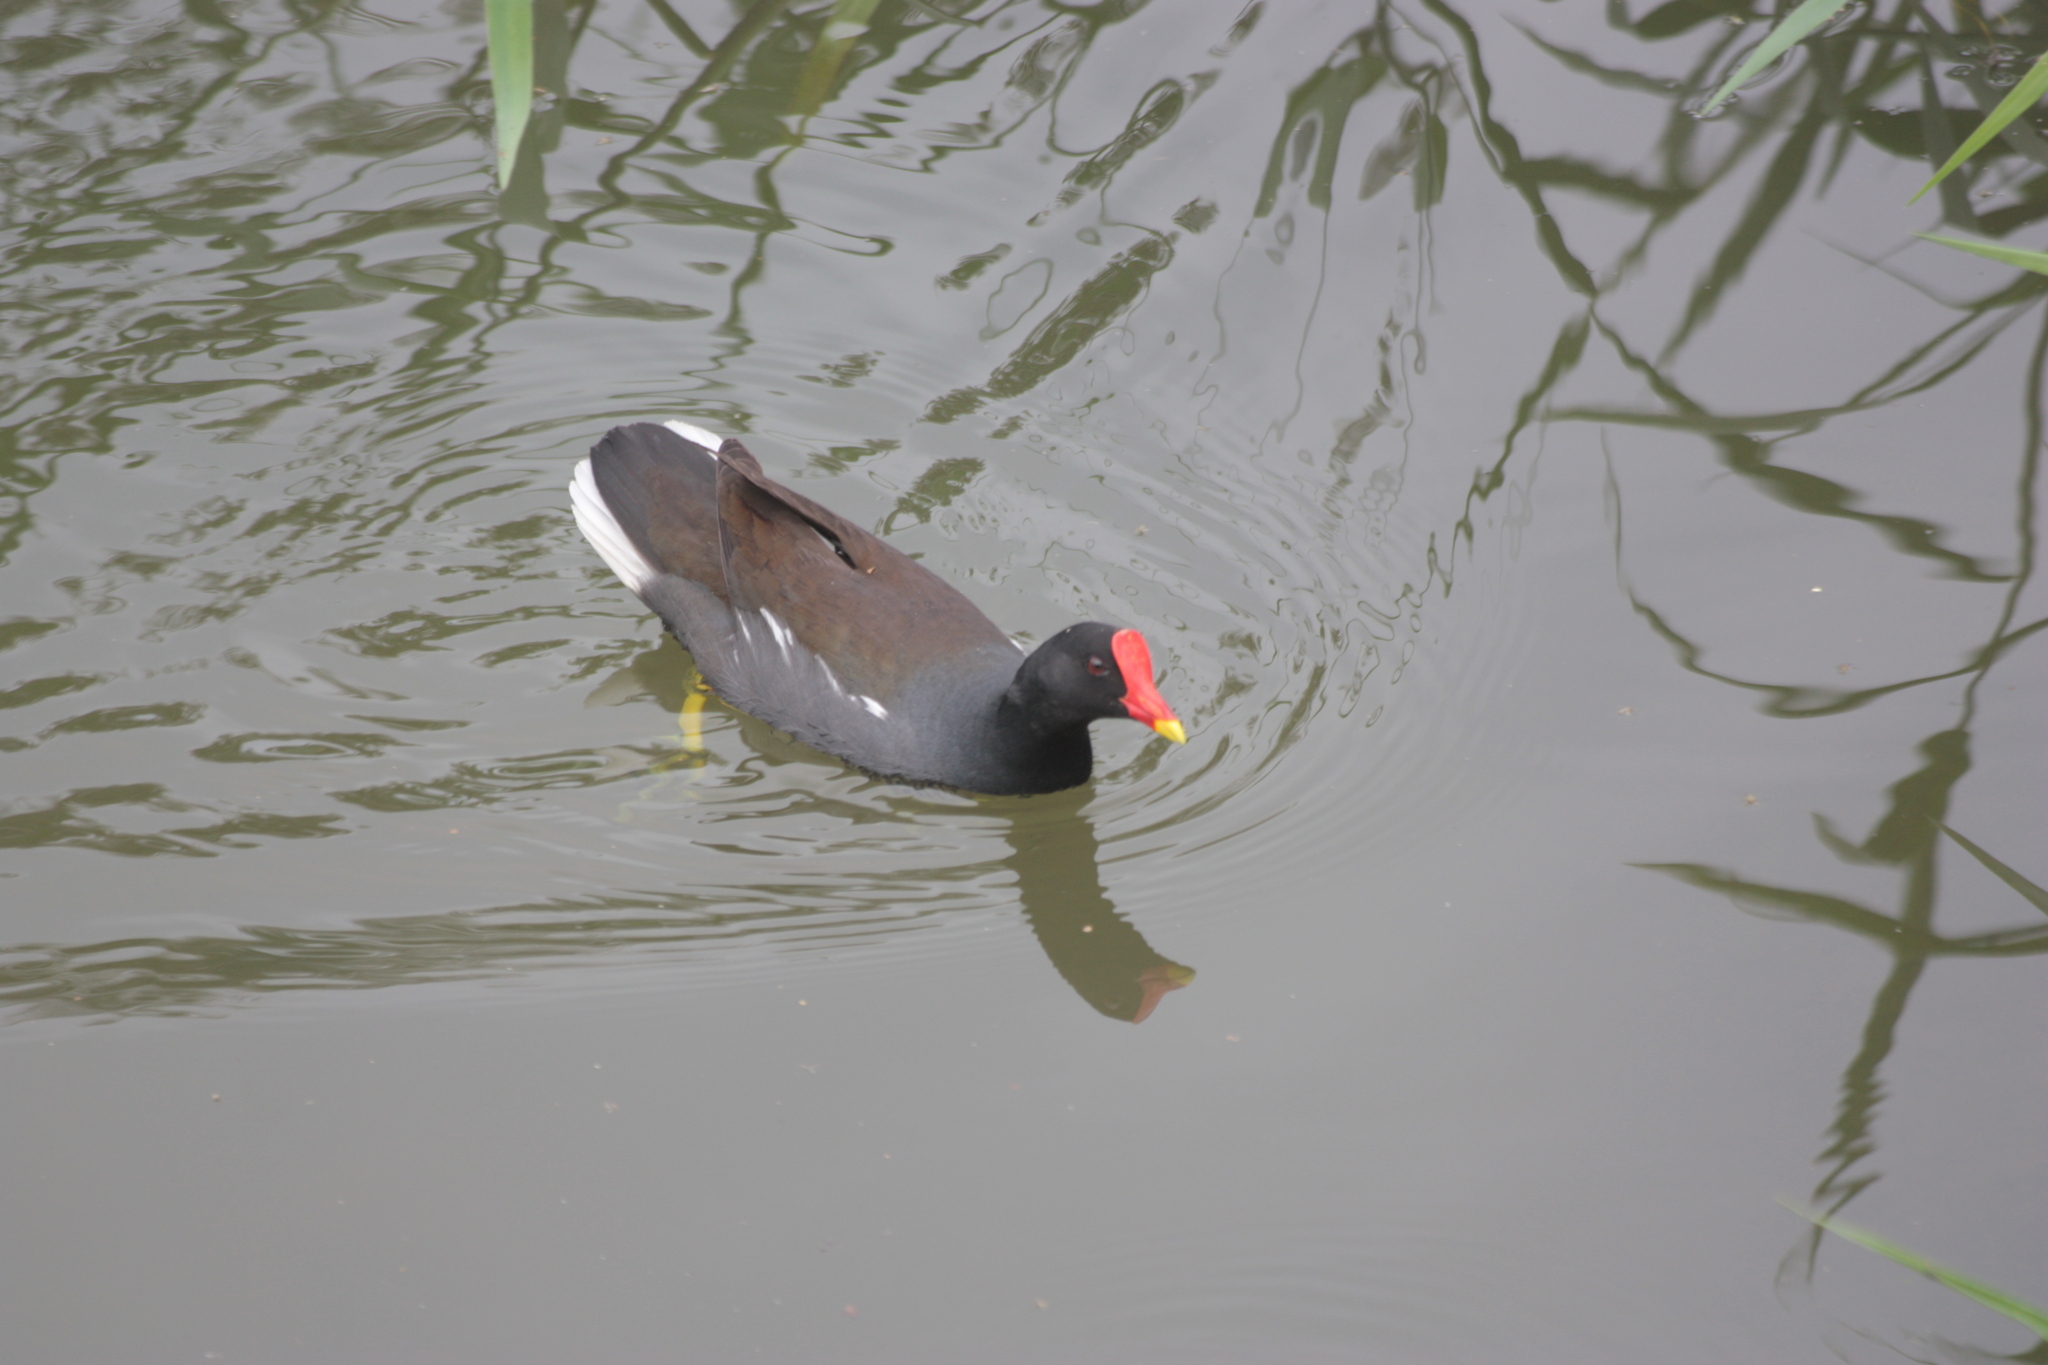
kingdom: Animalia
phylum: Chordata
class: Aves
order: Gruiformes
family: Rallidae
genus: Gallinula
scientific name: Gallinula chloropus
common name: Common moorhen
